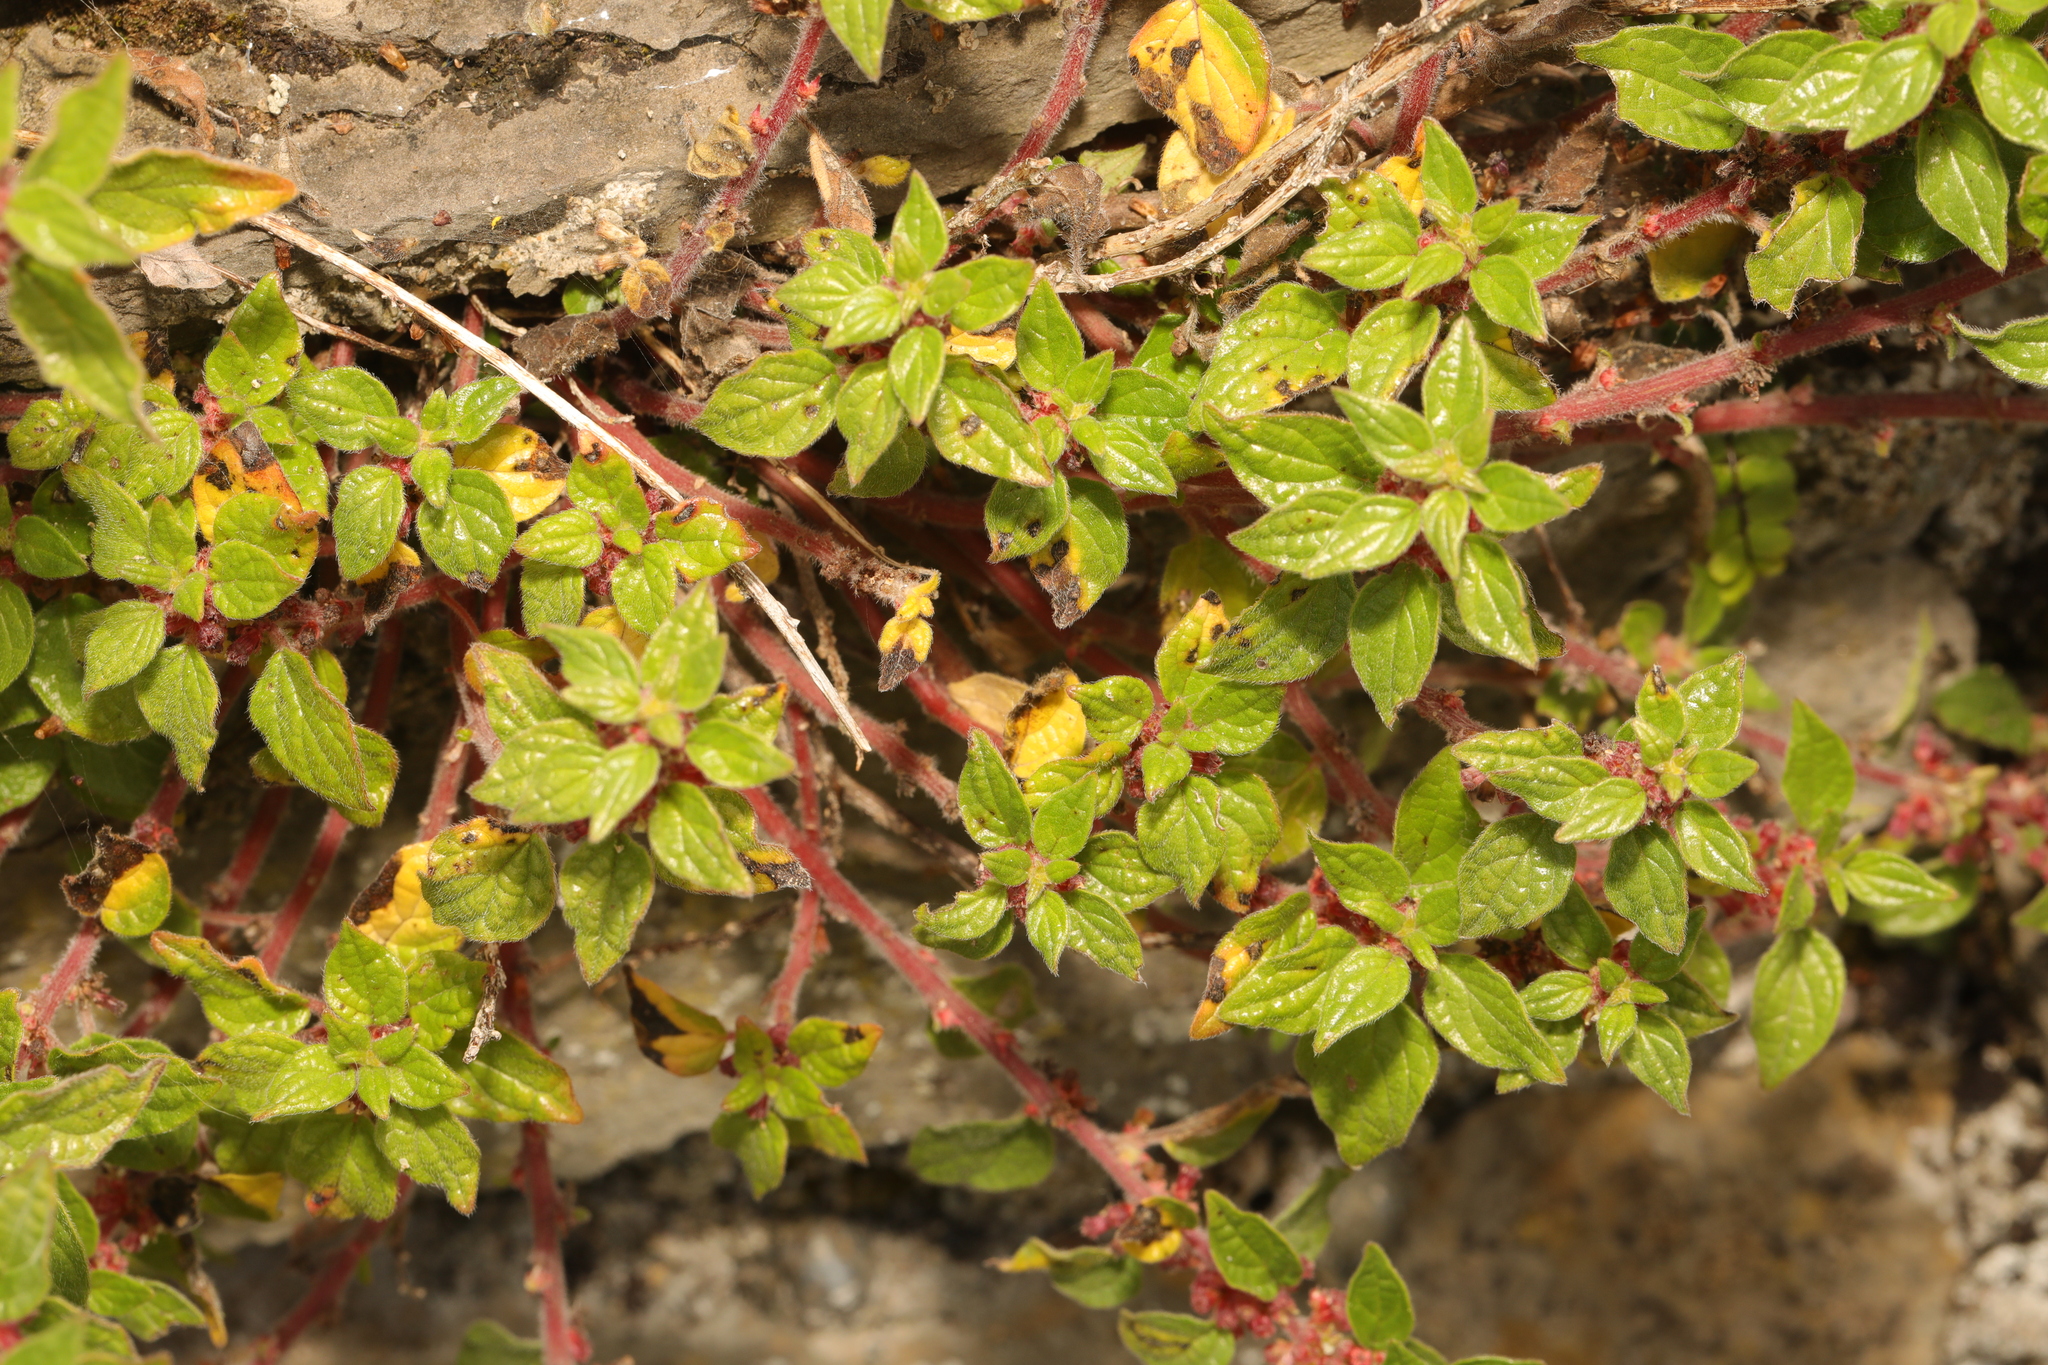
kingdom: Plantae
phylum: Tracheophyta
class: Magnoliopsida
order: Rosales
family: Urticaceae
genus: Parietaria
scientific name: Parietaria judaica
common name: Pellitory-of-the-wall
